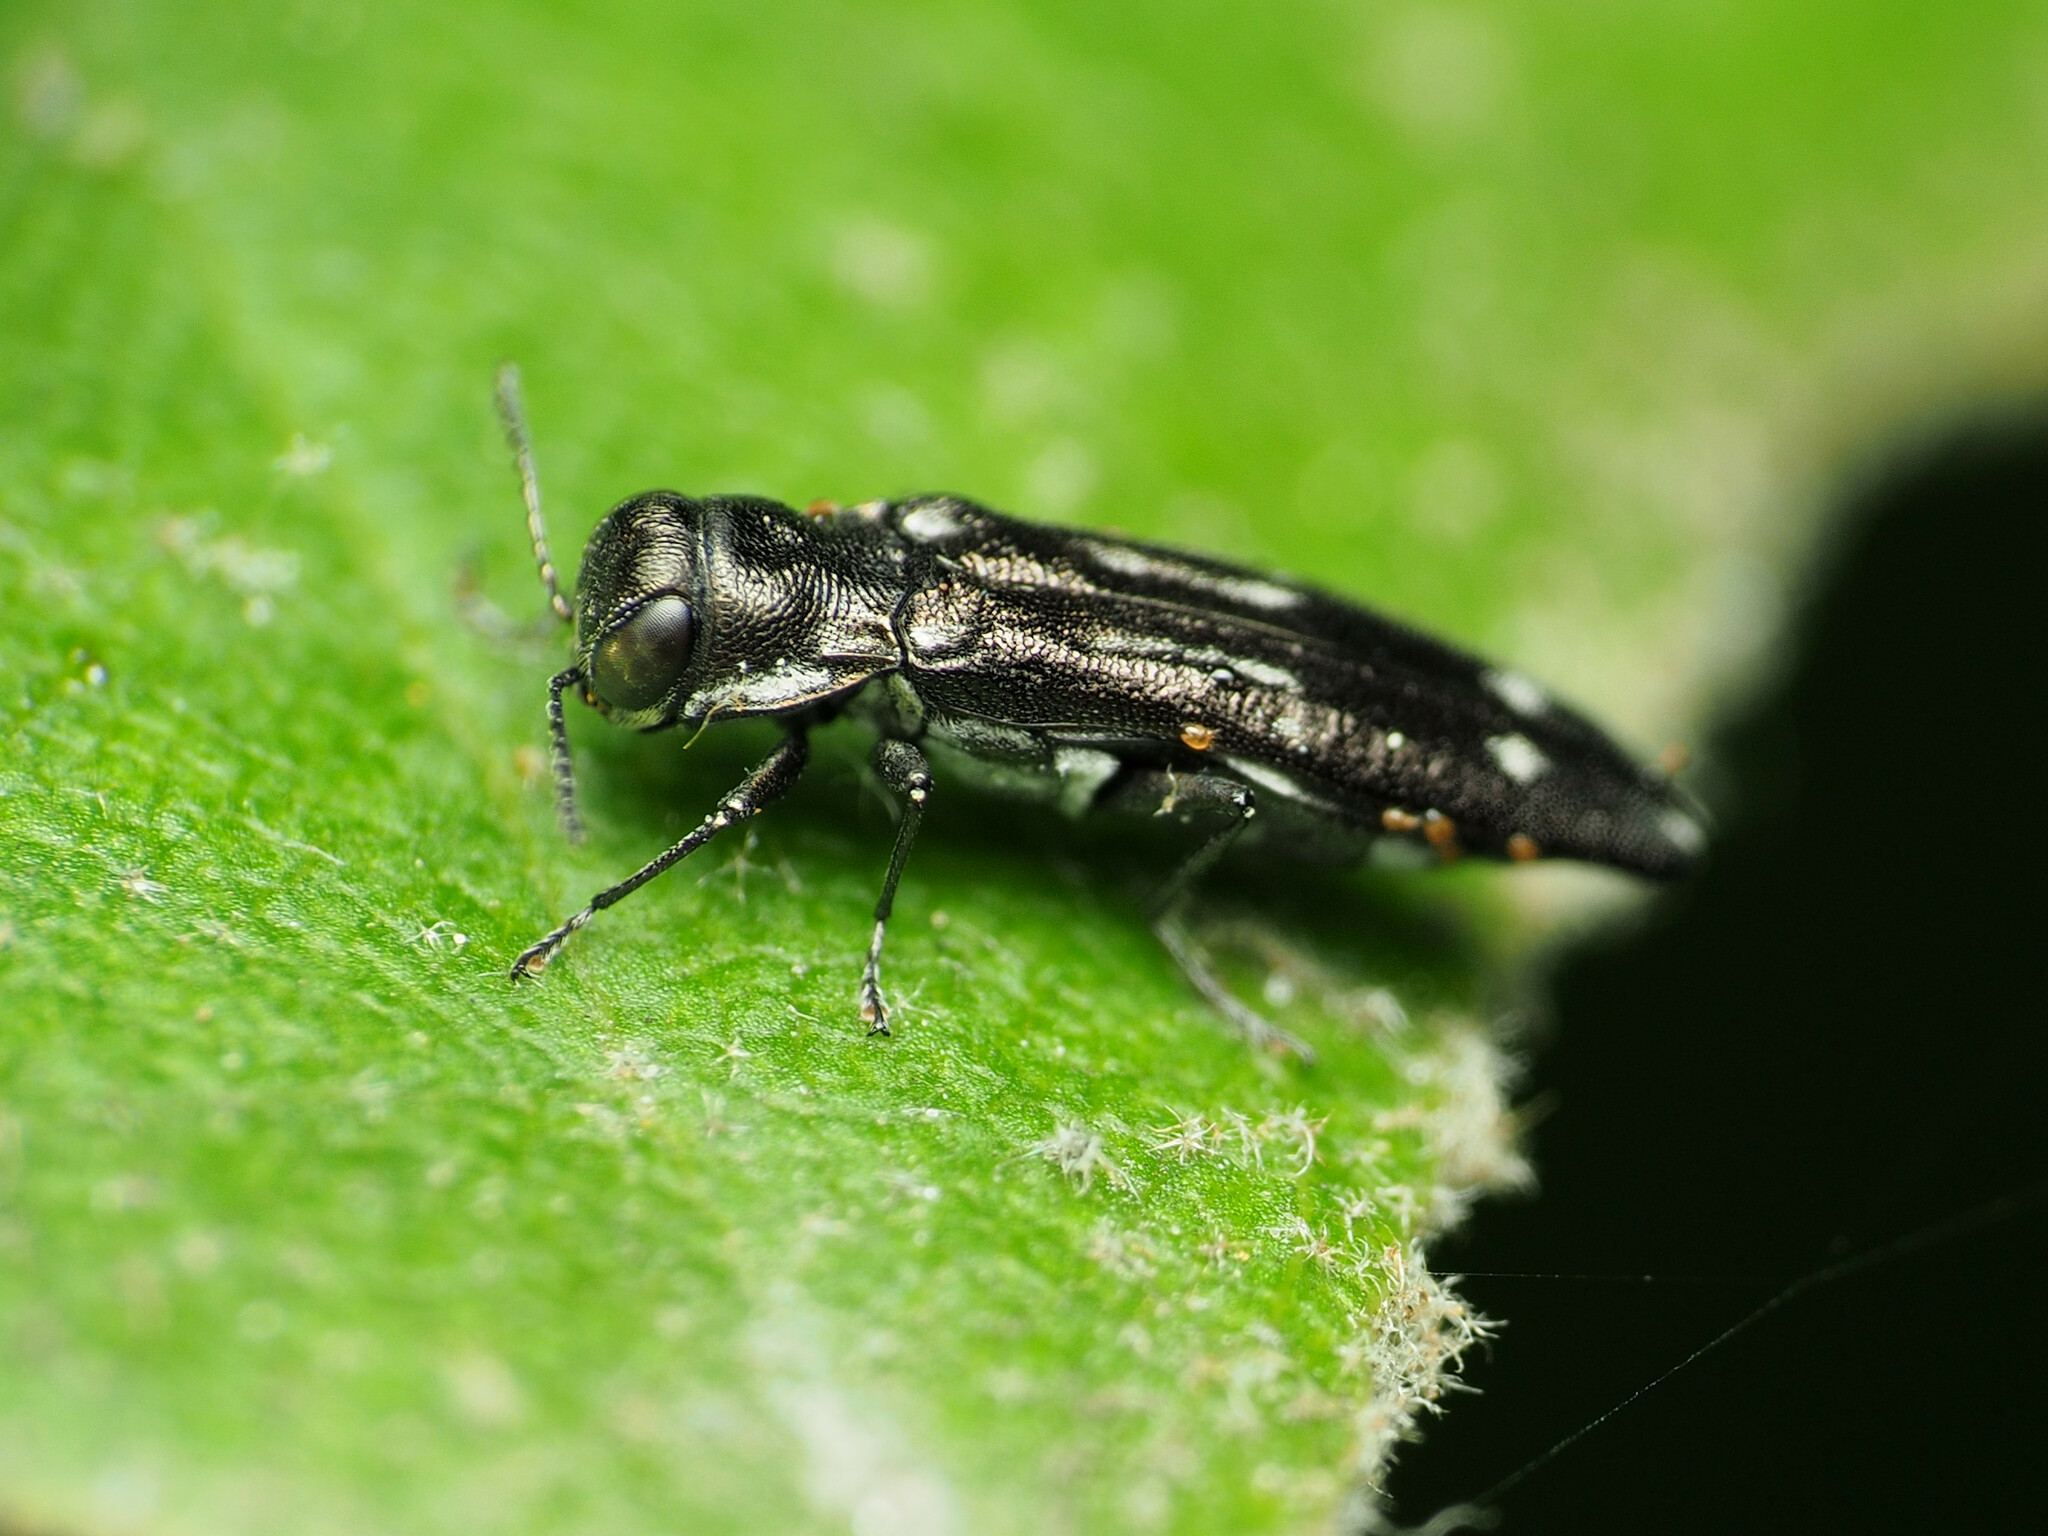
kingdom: Animalia
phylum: Arthropoda
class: Insecta
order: Coleoptera
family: Buprestidae
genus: Agrilus
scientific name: Agrilus obsoletoguttatus
